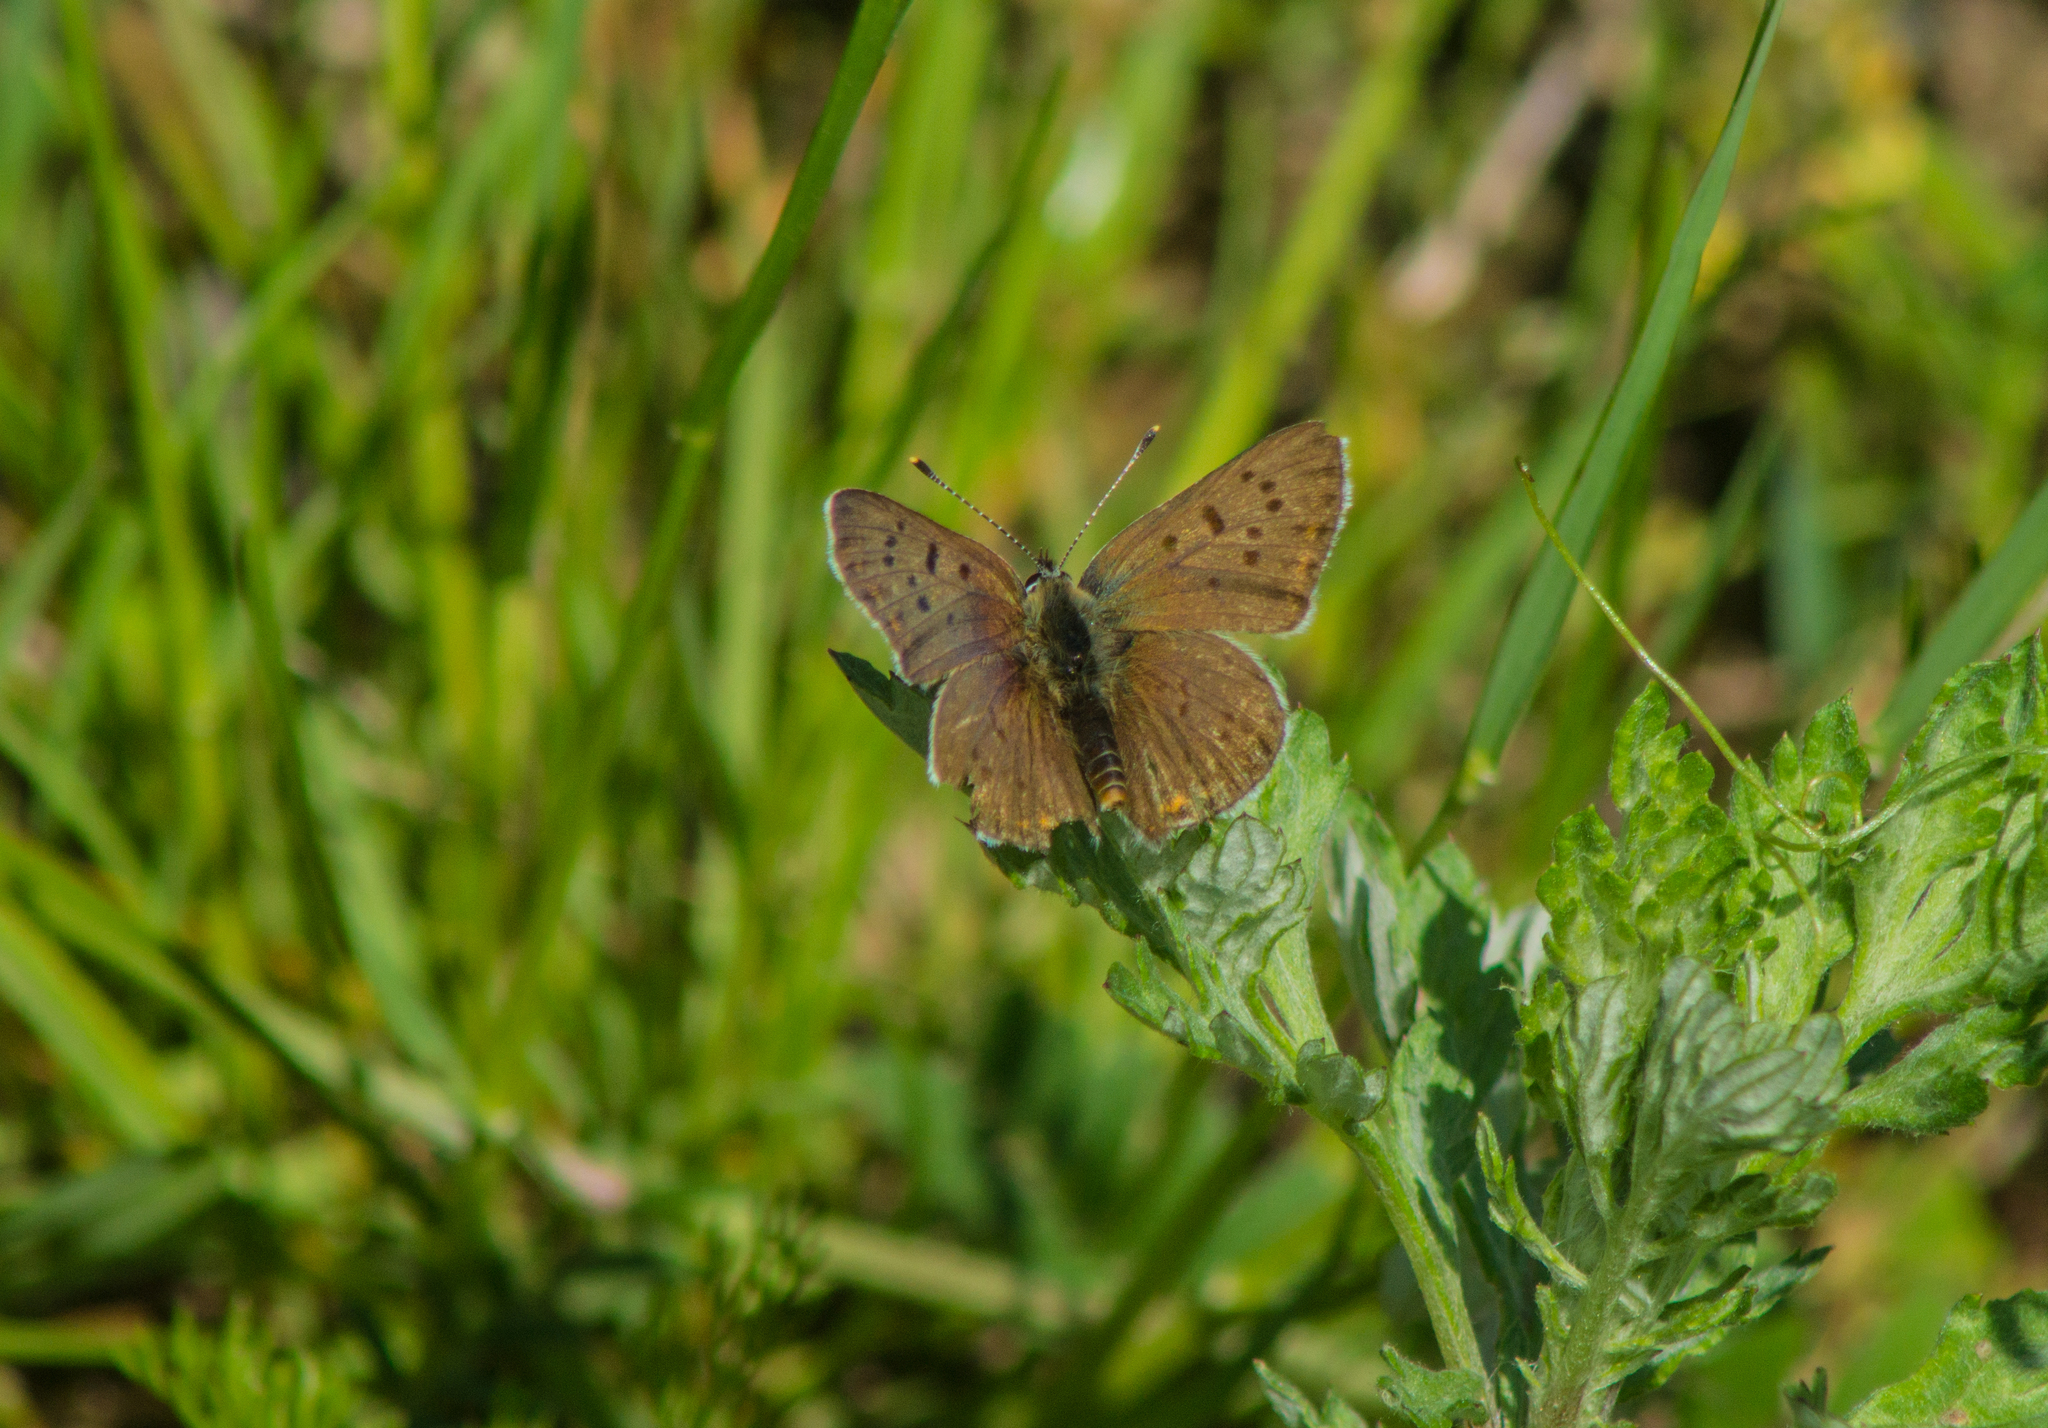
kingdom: Animalia
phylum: Arthropoda
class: Insecta
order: Lepidoptera
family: Lycaenidae
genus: Loweia
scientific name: Loweia tityrus
